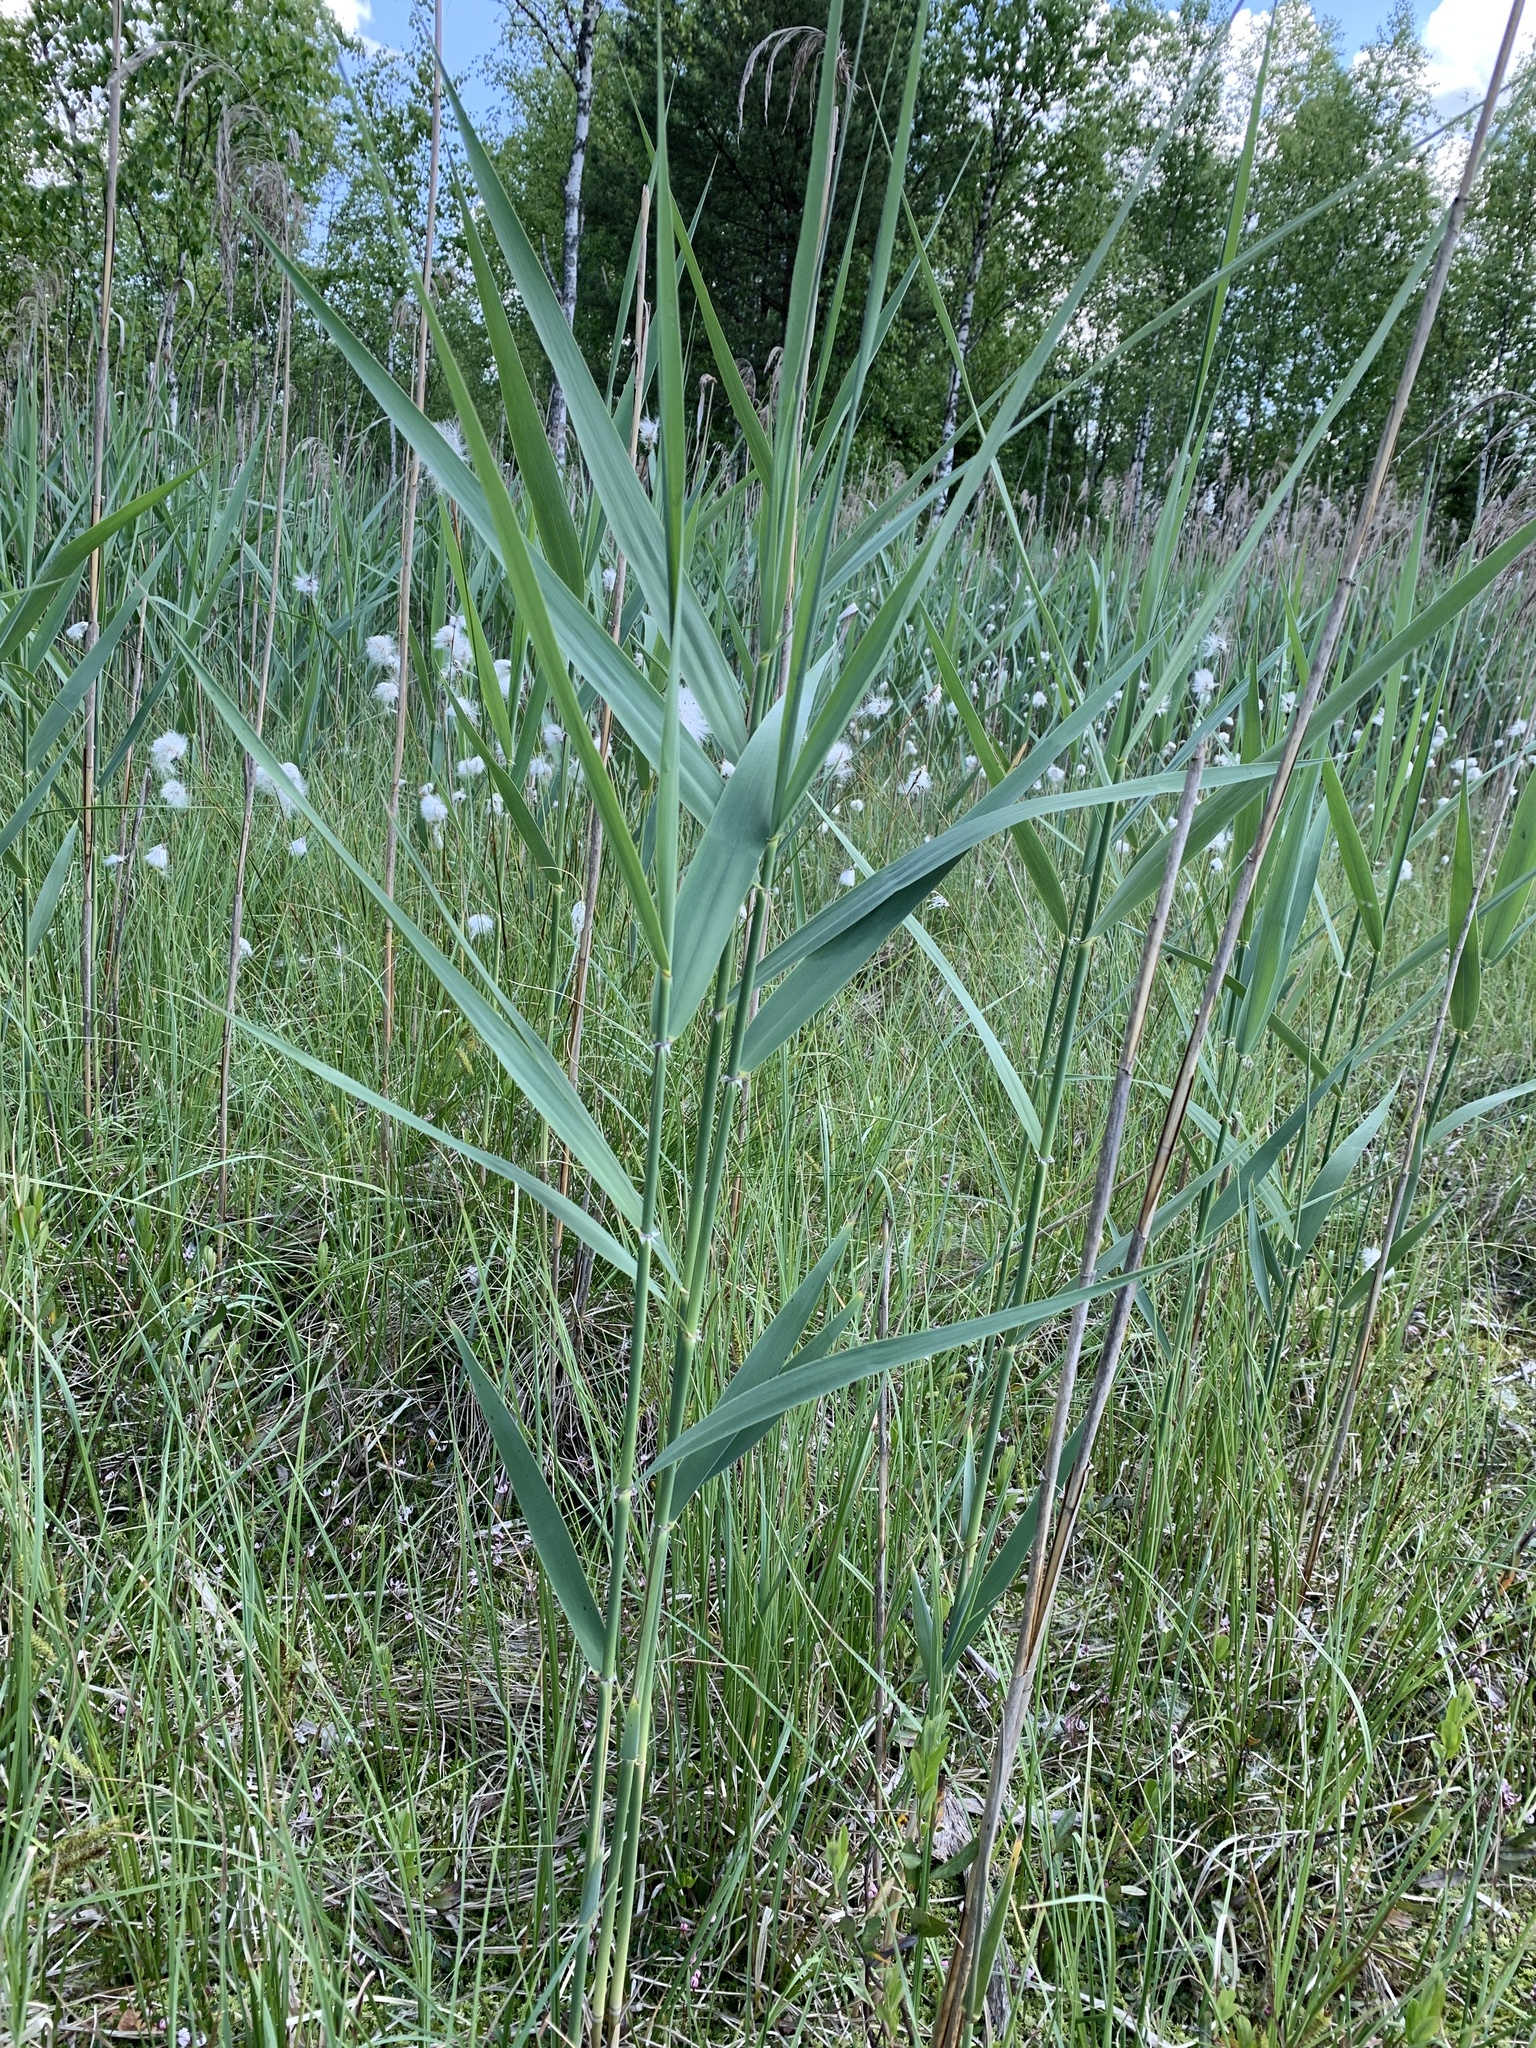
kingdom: Plantae
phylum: Tracheophyta
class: Liliopsida
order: Poales
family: Poaceae
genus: Phragmites
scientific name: Phragmites australis
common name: Common reed
